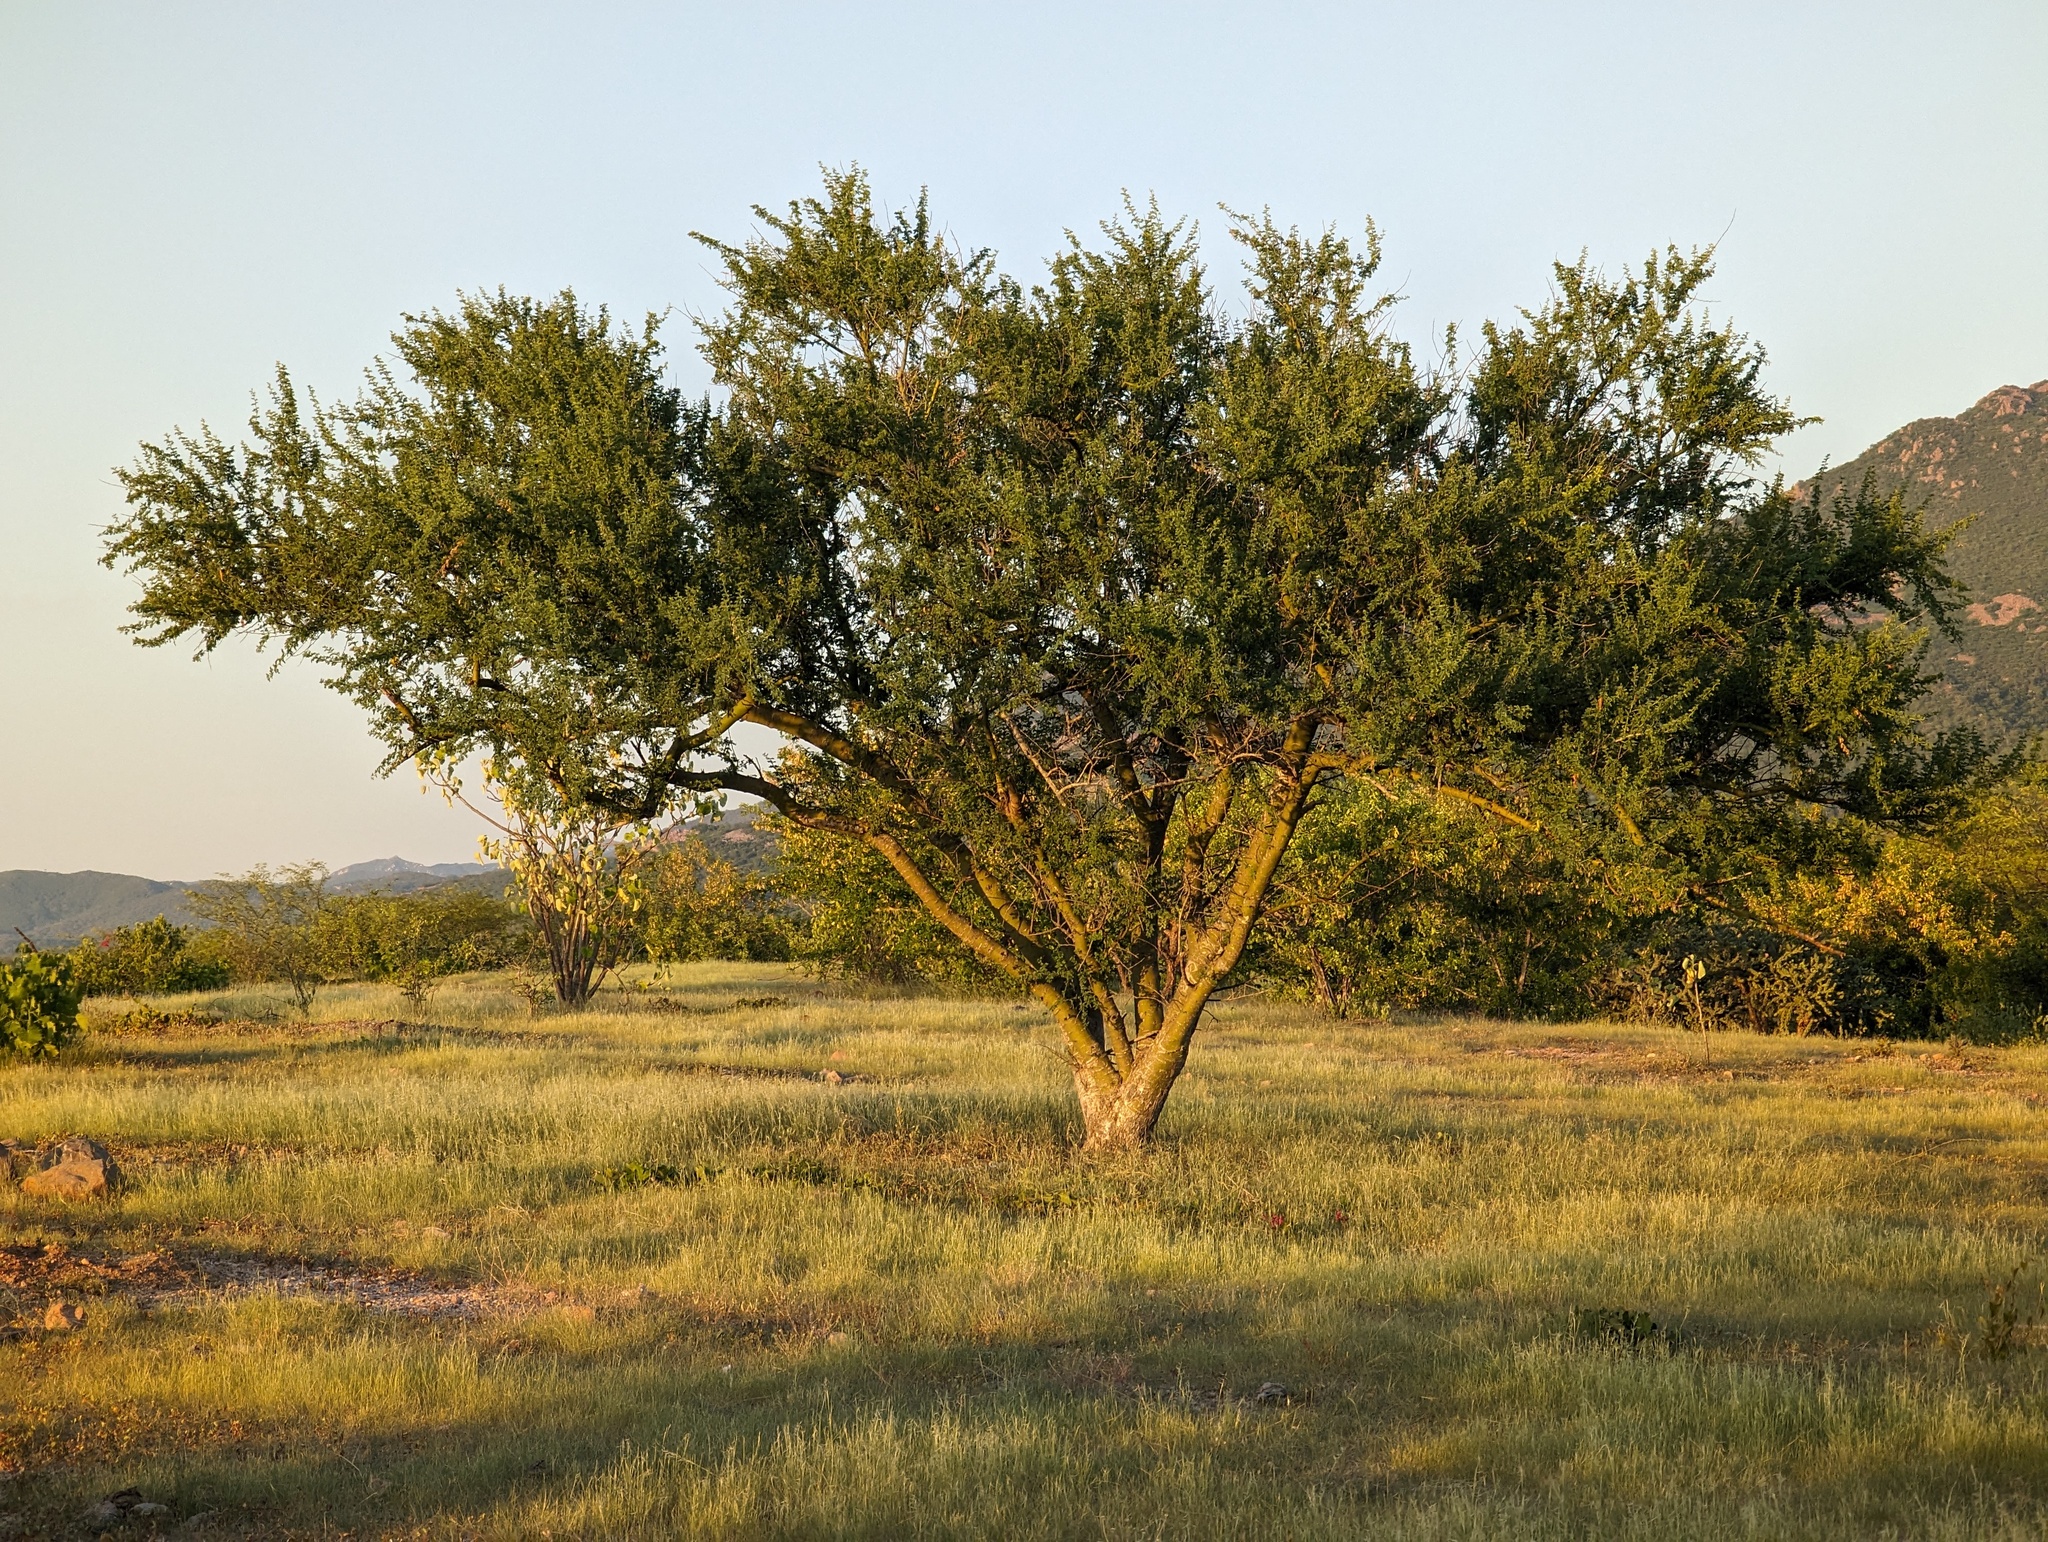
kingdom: Plantae
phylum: Tracheophyta
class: Magnoliopsida
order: Fabales
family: Fabaceae
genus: Parkinsonia
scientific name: Parkinsonia florida
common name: Blue paloverde
